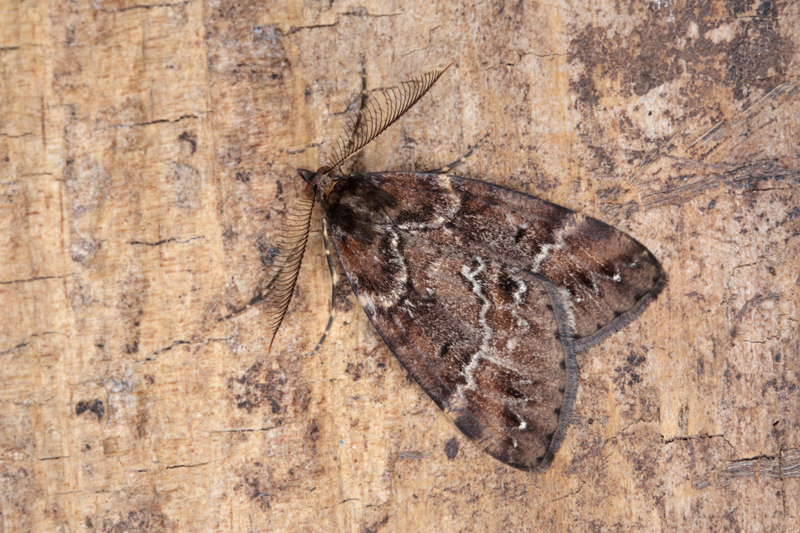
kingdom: Animalia
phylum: Arthropoda
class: Insecta
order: Lepidoptera
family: Geometridae
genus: Pseudocoremia
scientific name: Pseudocoremia ombrodes
